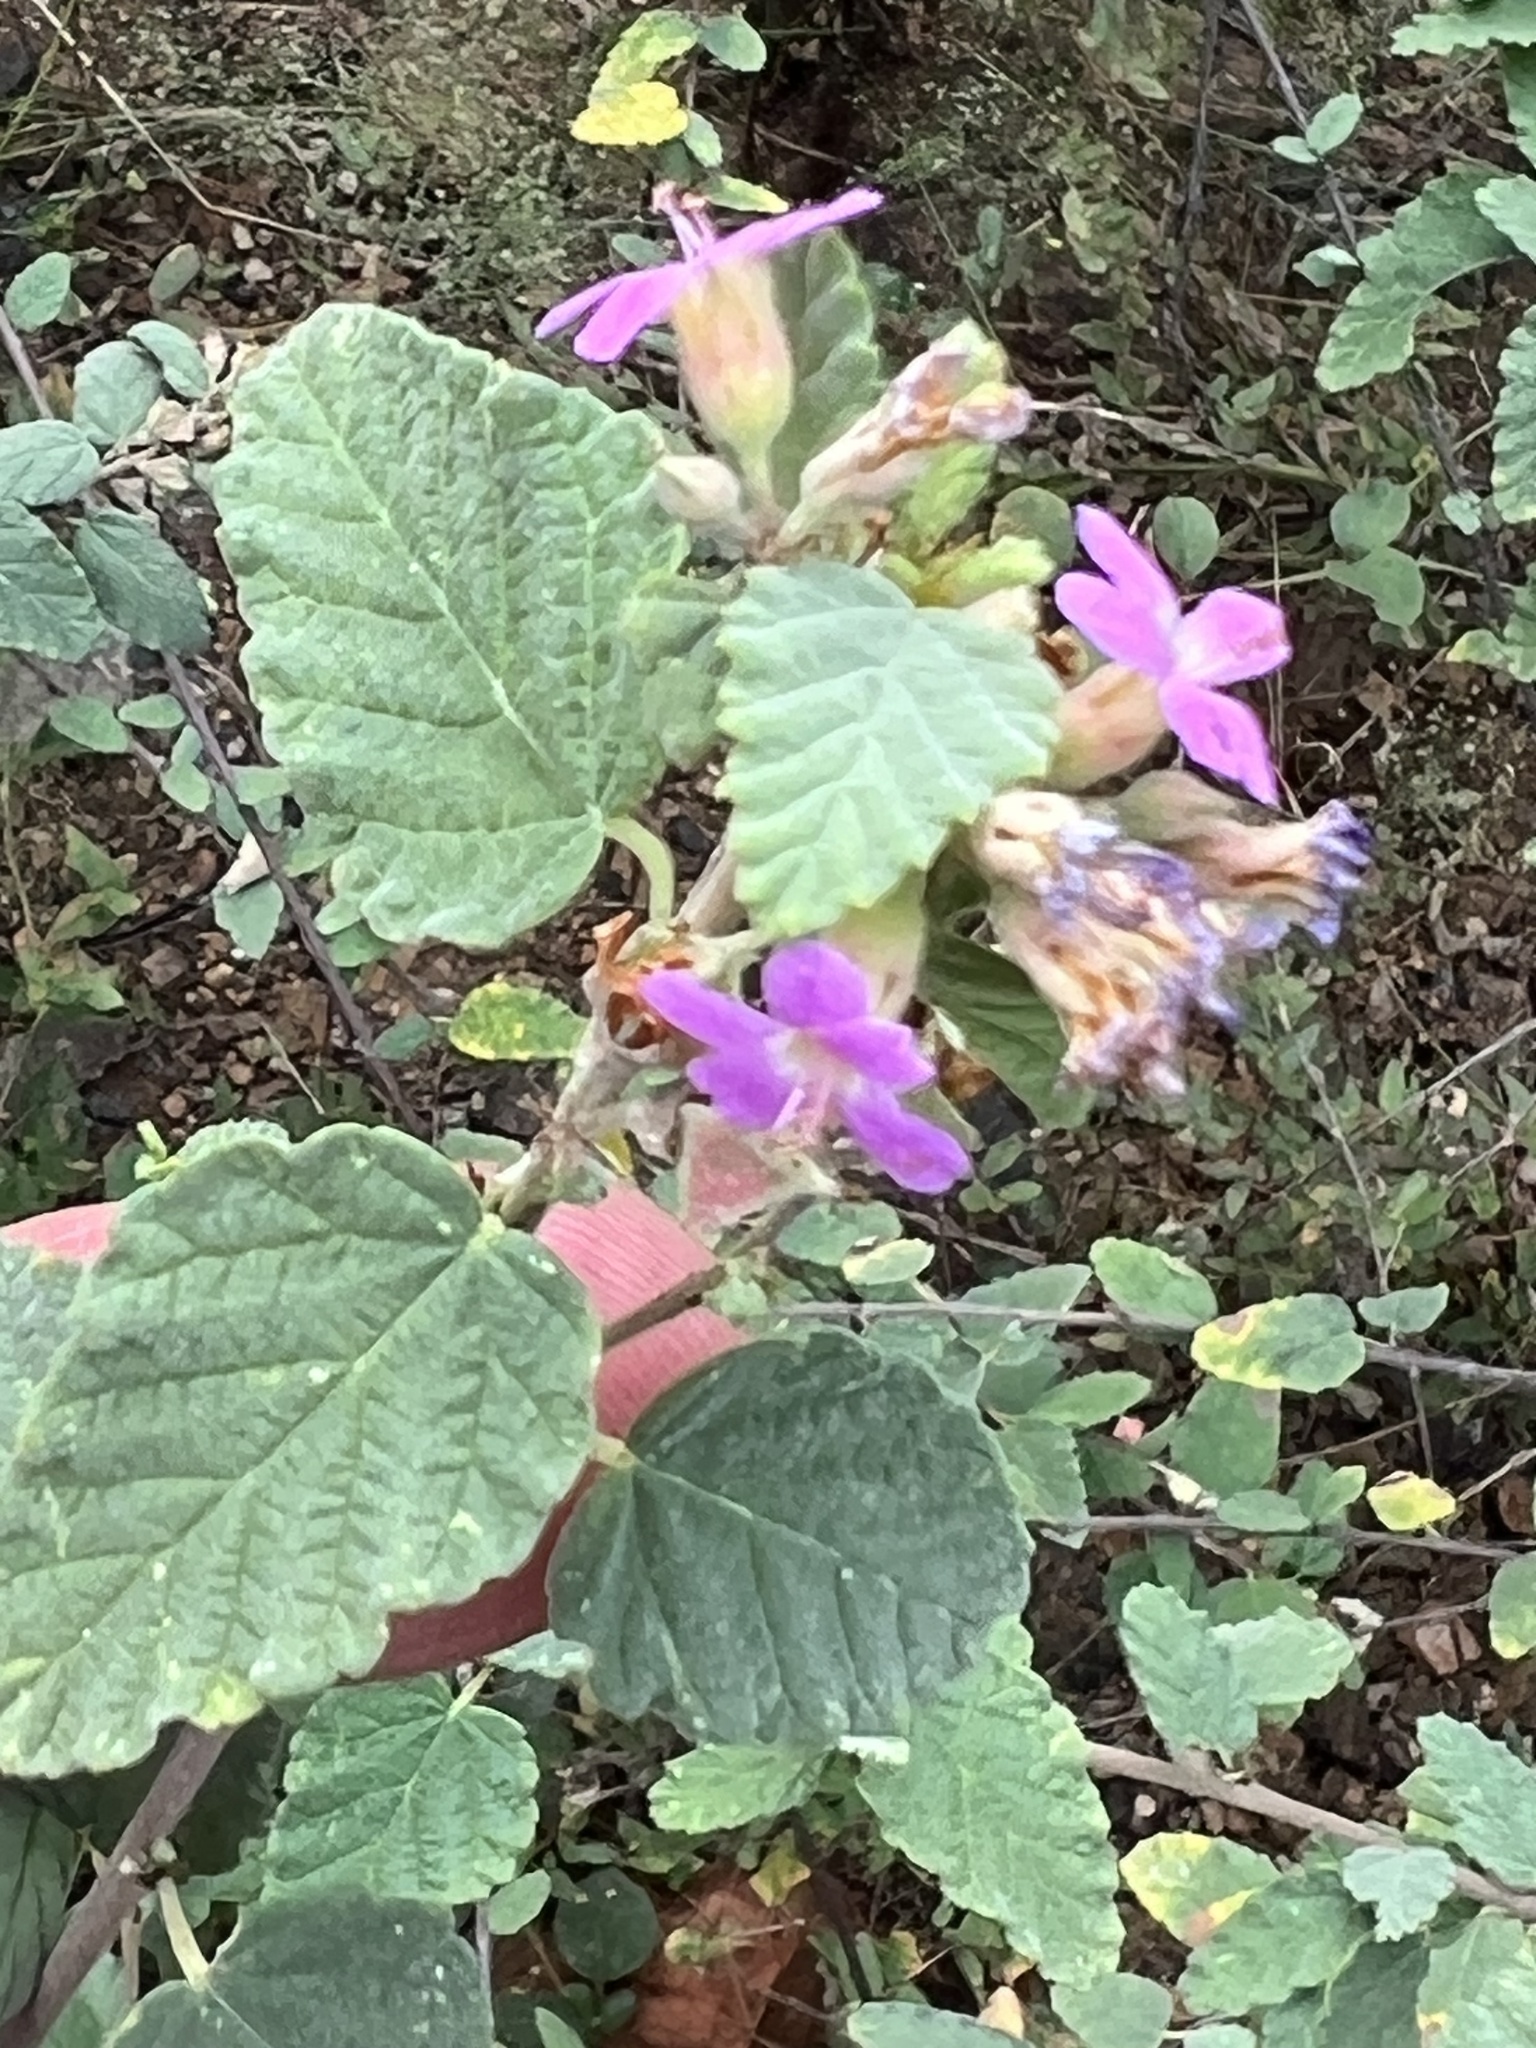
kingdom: Plantae
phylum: Tracheophyta
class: Magnoliopsida
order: Malvales
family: Malvaceae
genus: Melochia
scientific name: Melochia tomentosa
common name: Black torch
